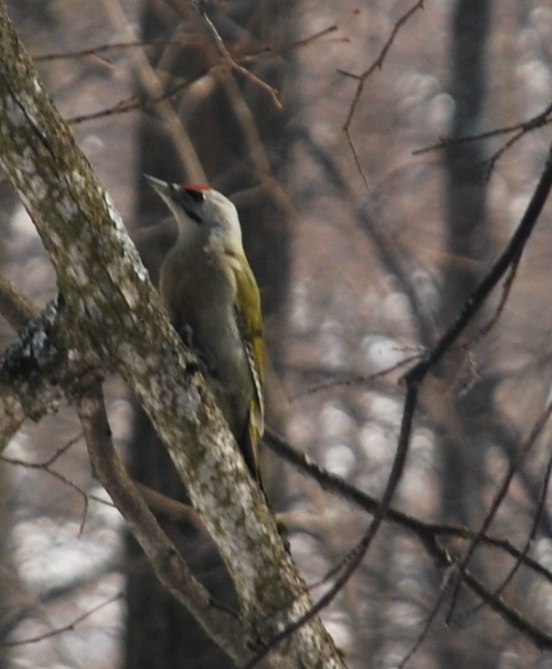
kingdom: Animalia
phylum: Chordata
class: Aves
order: Piciformes
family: Picidae
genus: Picus
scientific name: Picus canus
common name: Grey-headed woodpecker
